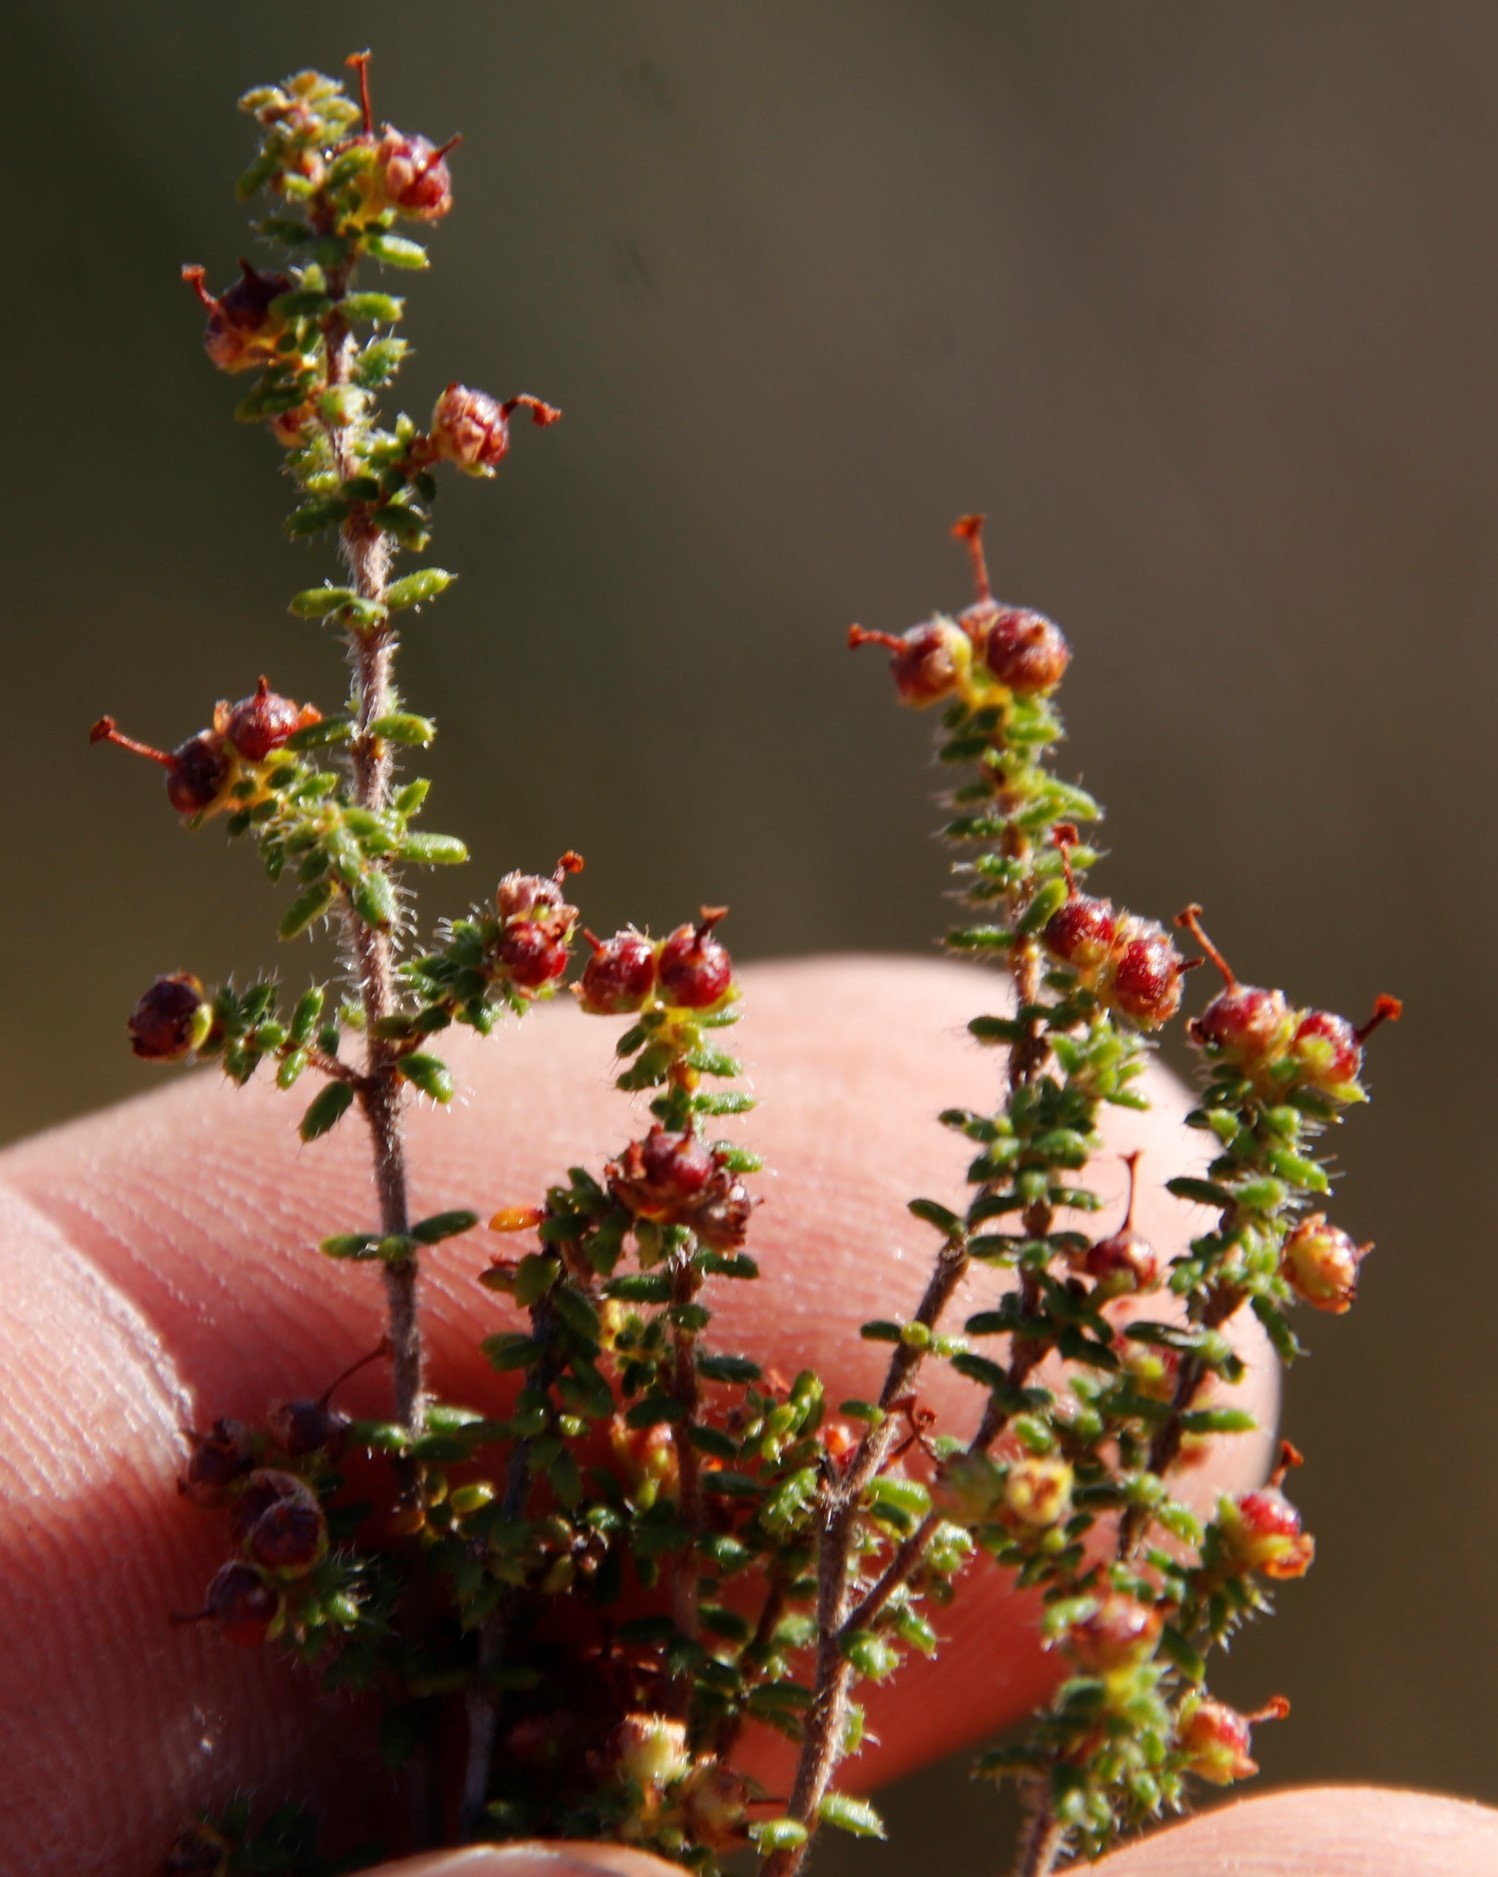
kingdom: Plantae
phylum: Tracheophyta
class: Magnoliopsida
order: Ericales
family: Ericaceae
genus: Erica
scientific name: Erica exleeana
